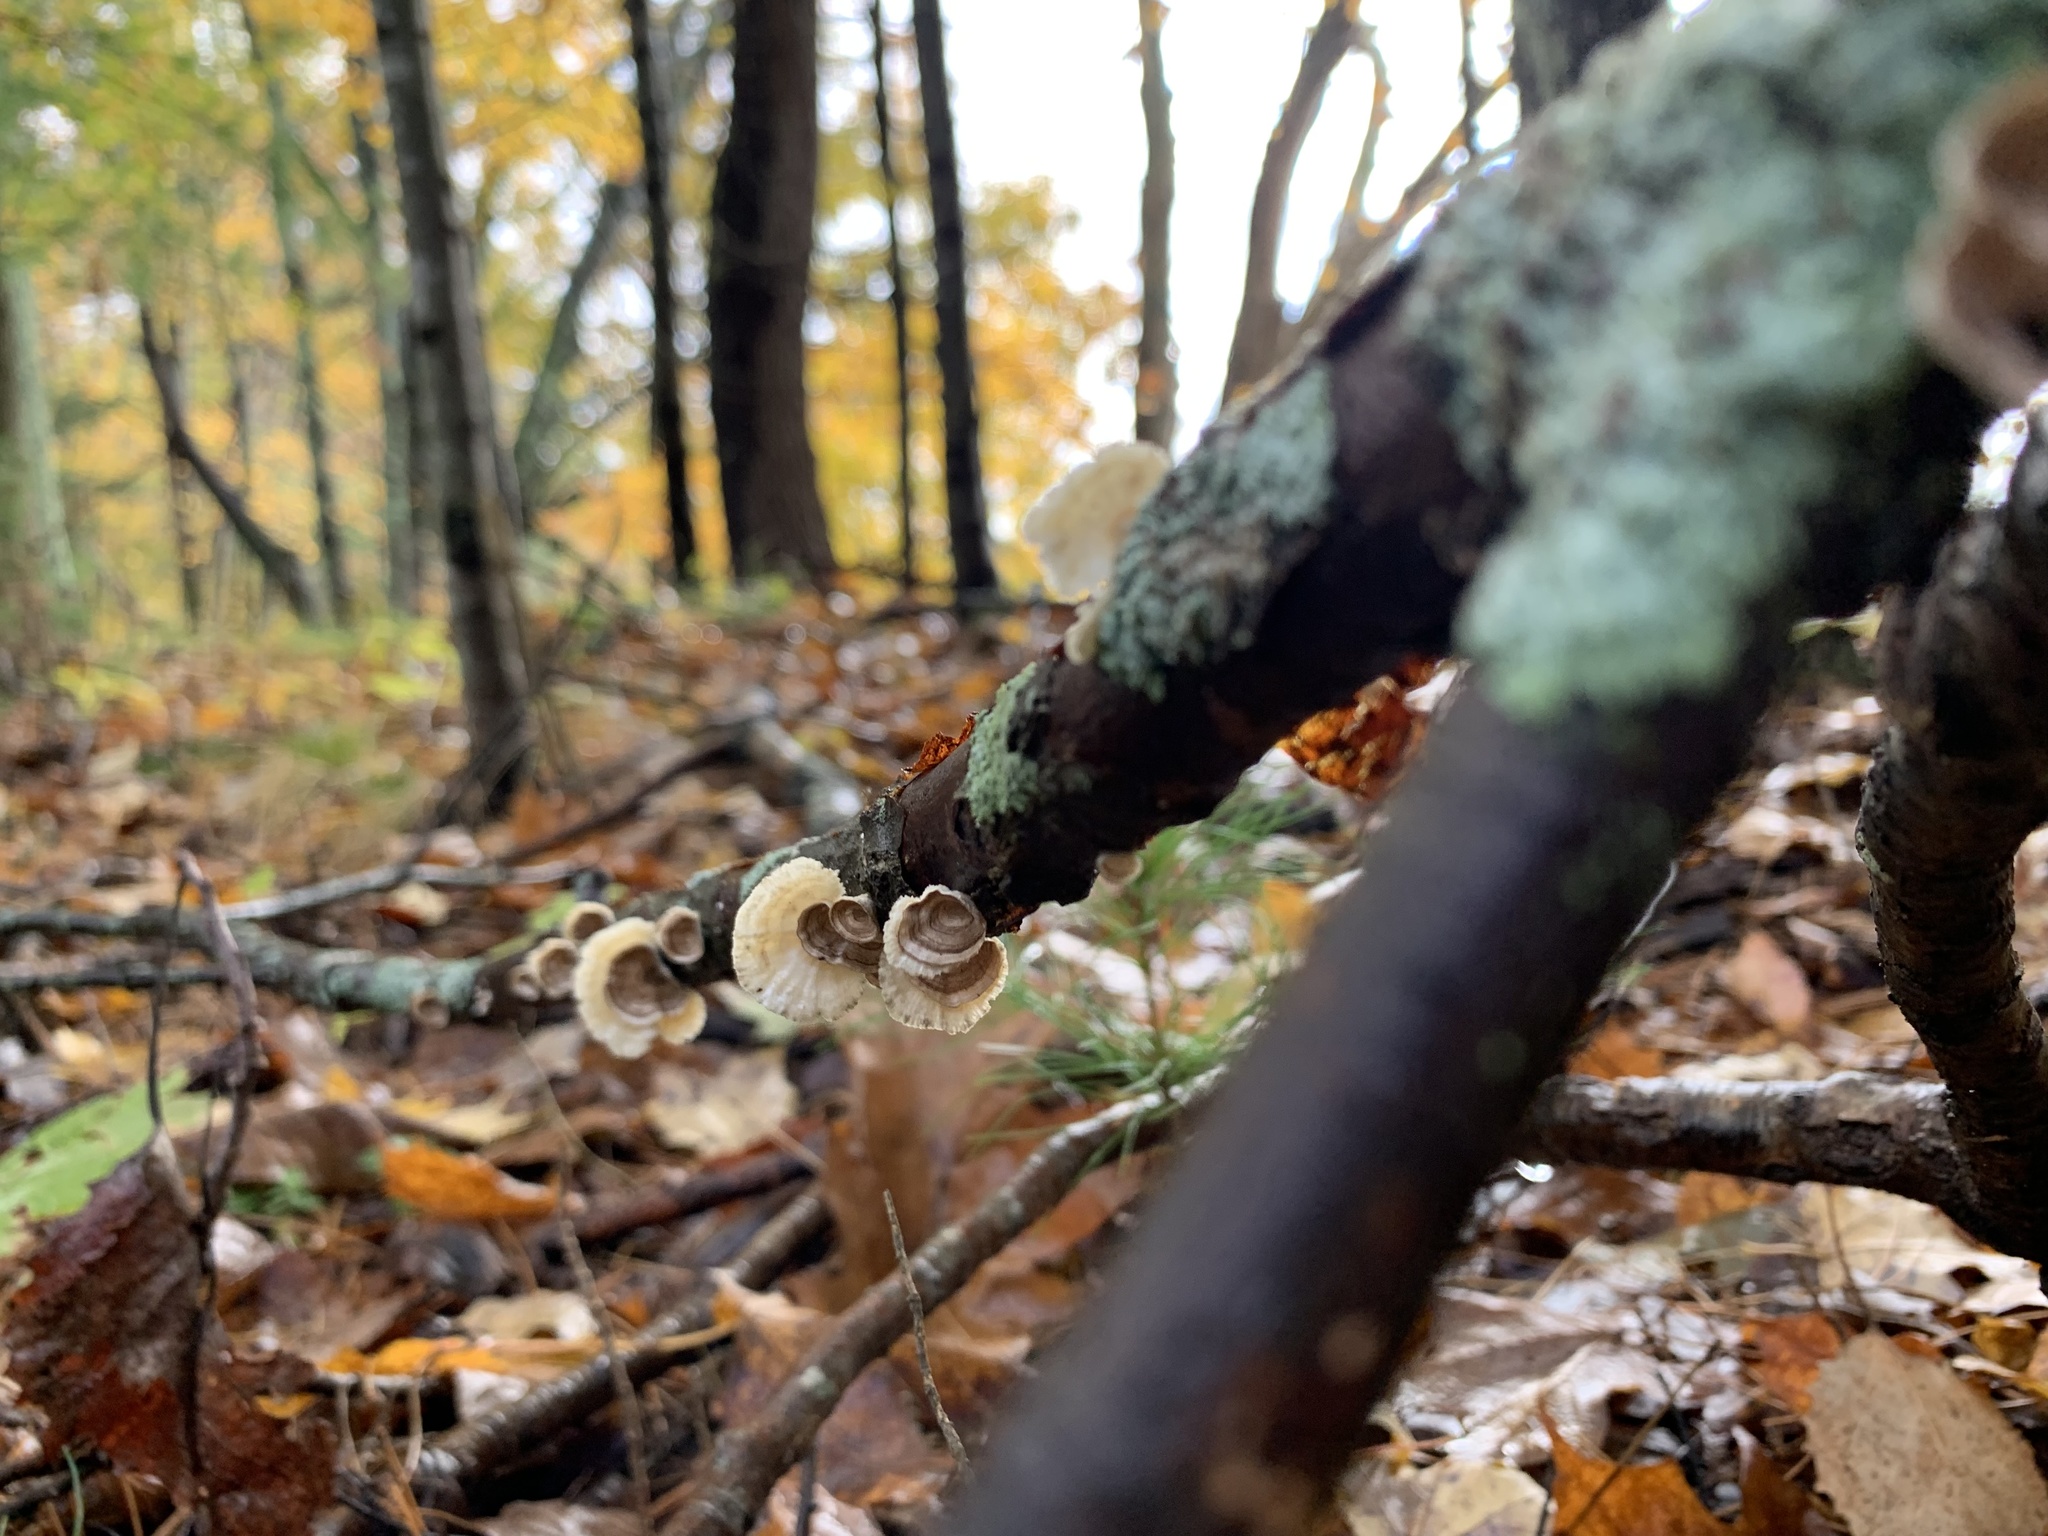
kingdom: Fungi
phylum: Basidiomycota
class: Agaricomycetes
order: Polyporales
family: Polyporaceae
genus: Poronidulus
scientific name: Poronidulus conchifer
